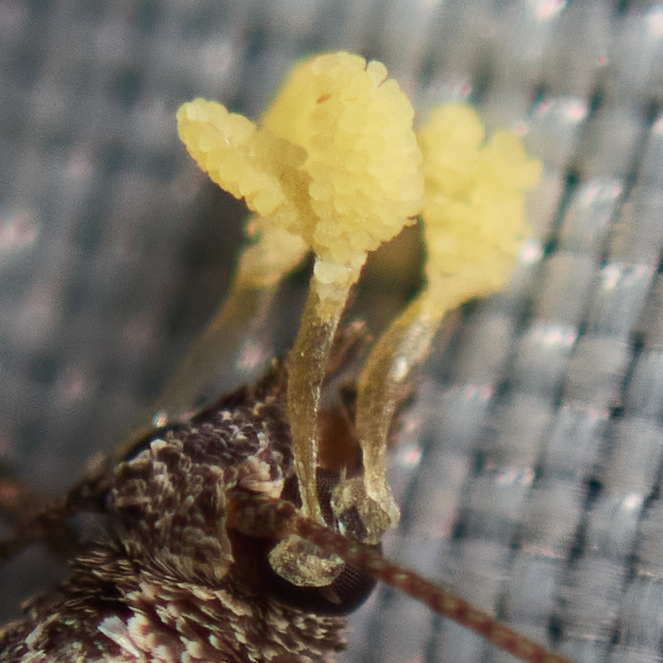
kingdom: Plantae
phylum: Tracheophyta
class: Liliopsida
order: Asparagales
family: Orchidaceae
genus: Platanthera
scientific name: Platanthera sparsiflora
